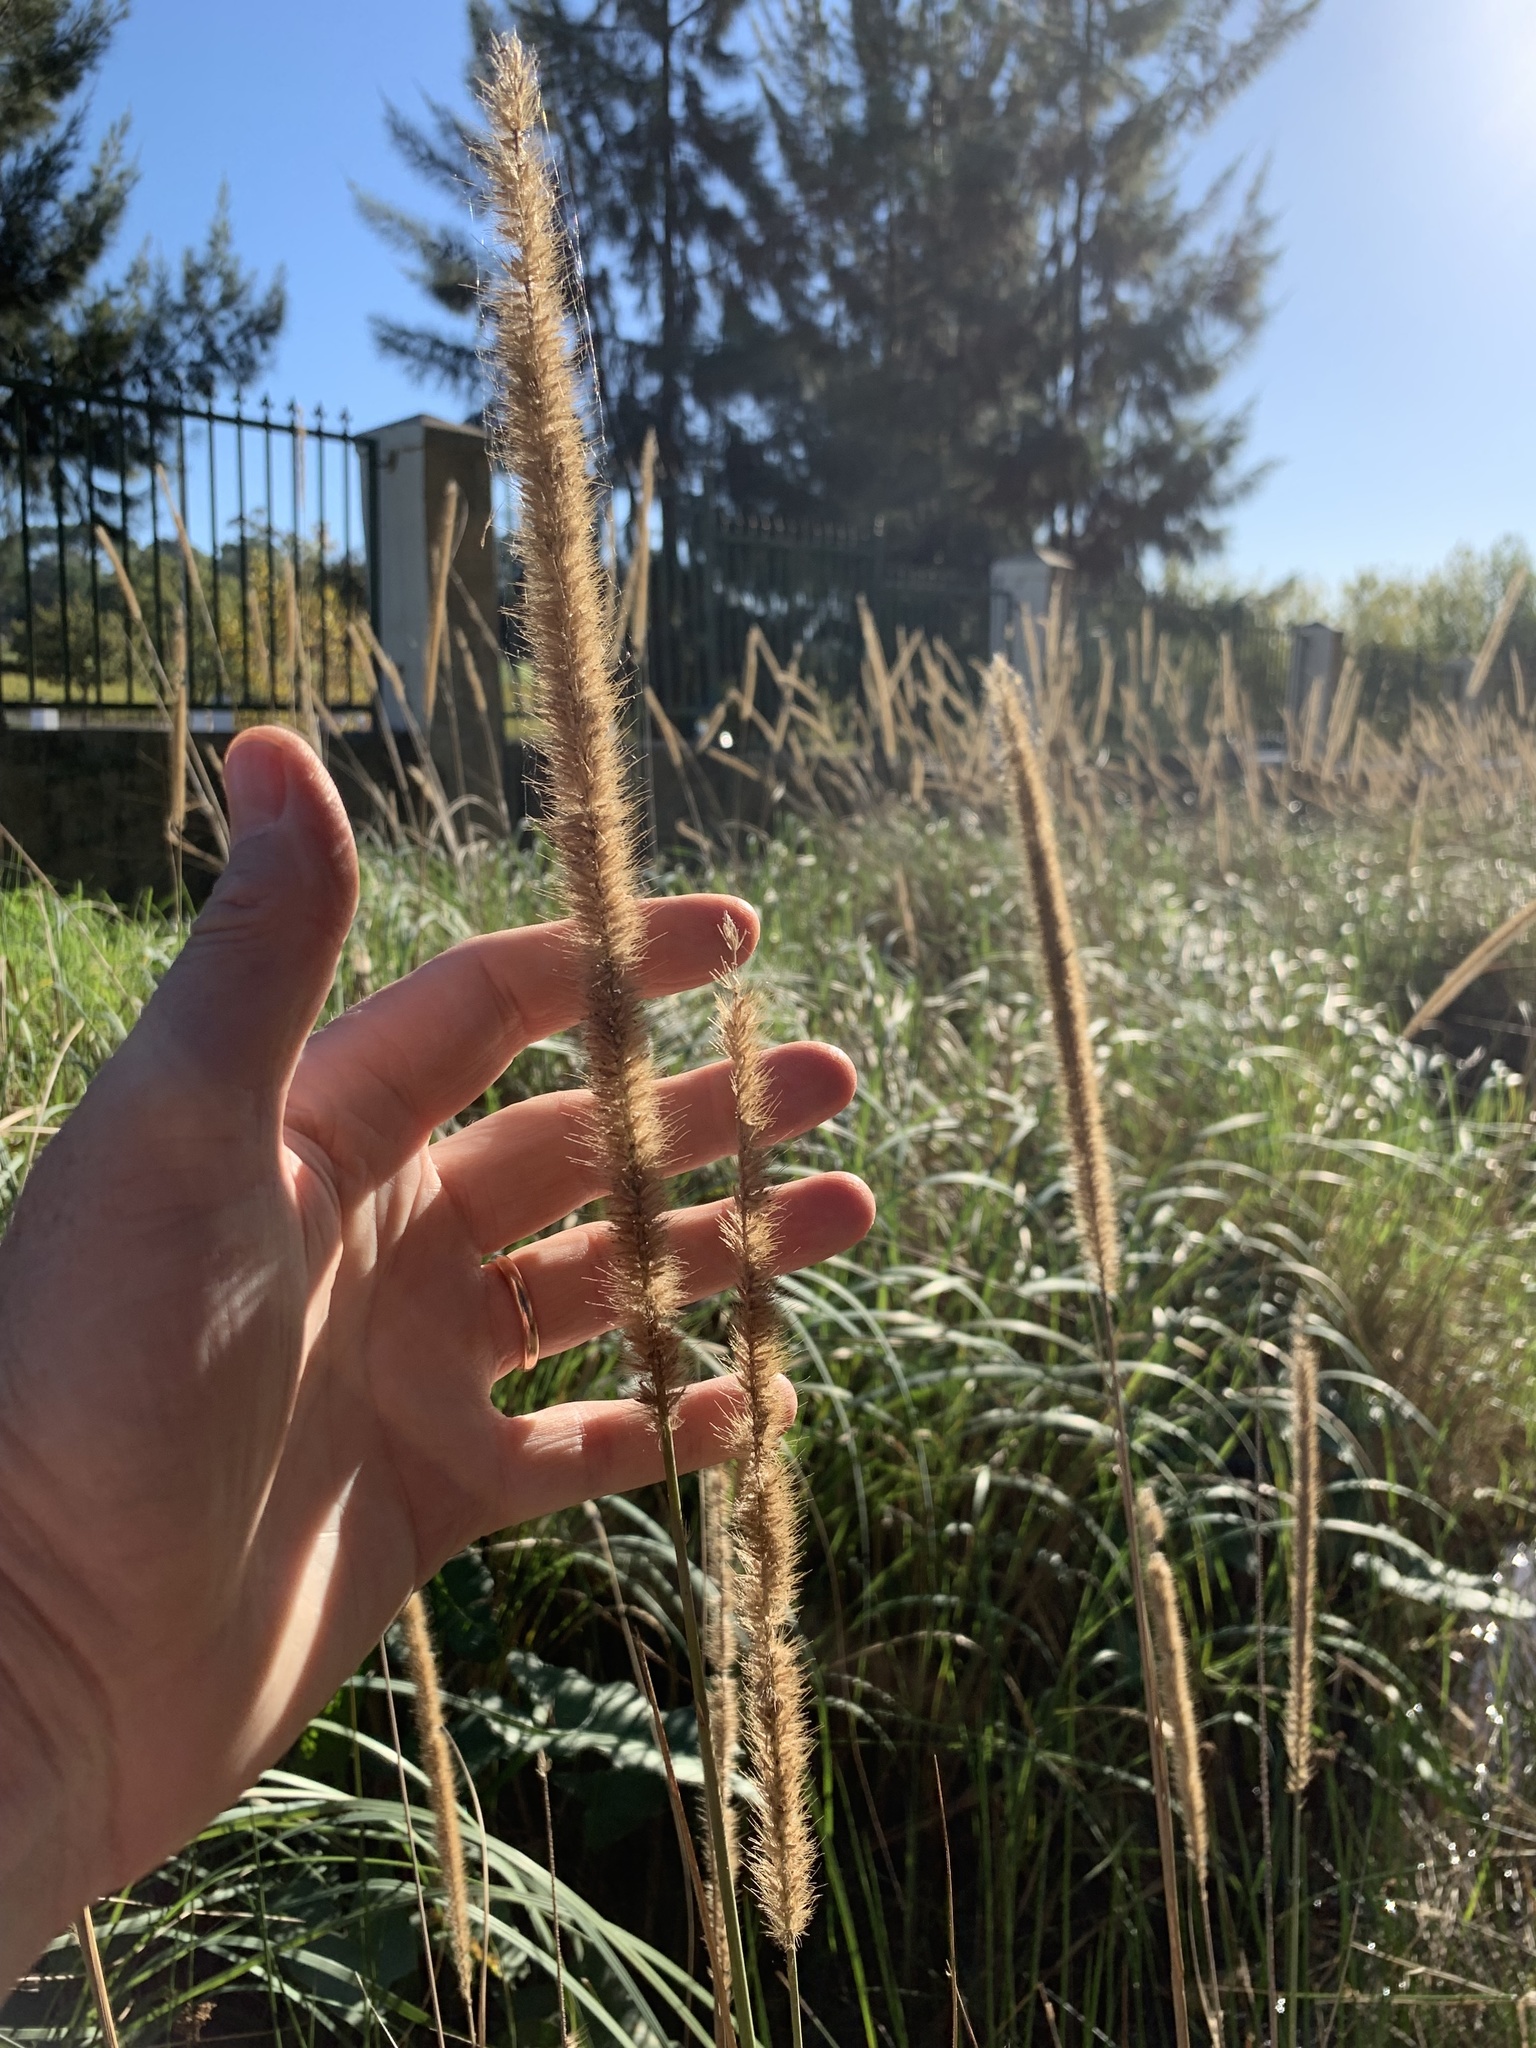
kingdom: Plantae
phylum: Tracheophyta
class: Liliopsida
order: Poales
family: Poaceae
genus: Cenchrus
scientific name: Cenchrus caudatus
